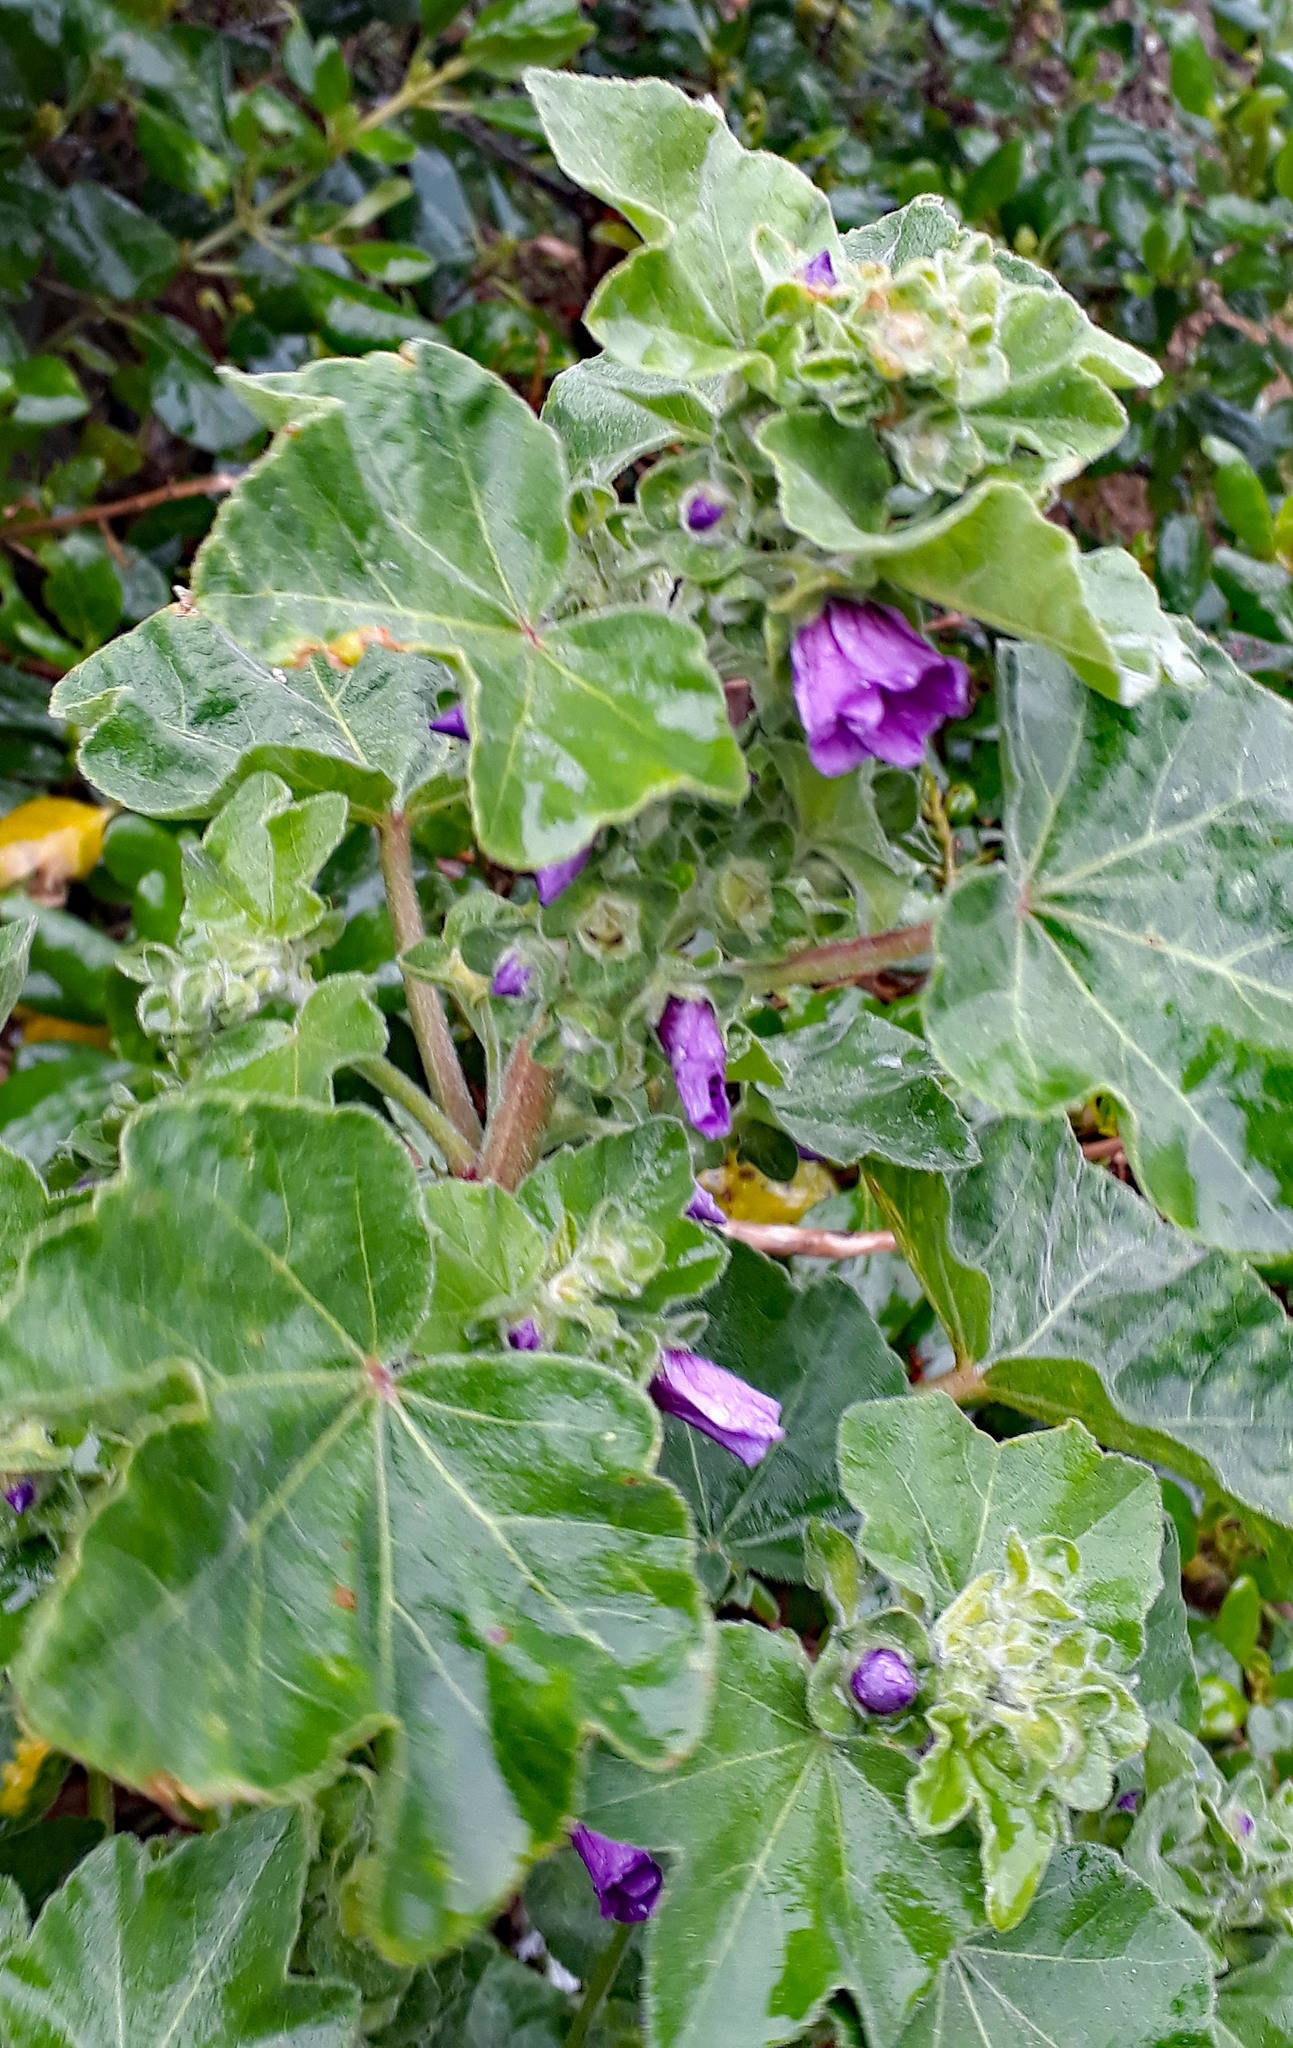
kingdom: Plantae
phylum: Tracheophyta
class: Magnoliopsida
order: Malvales
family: Malvaceae
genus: Malva
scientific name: Malva arborea
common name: Tree mallow
